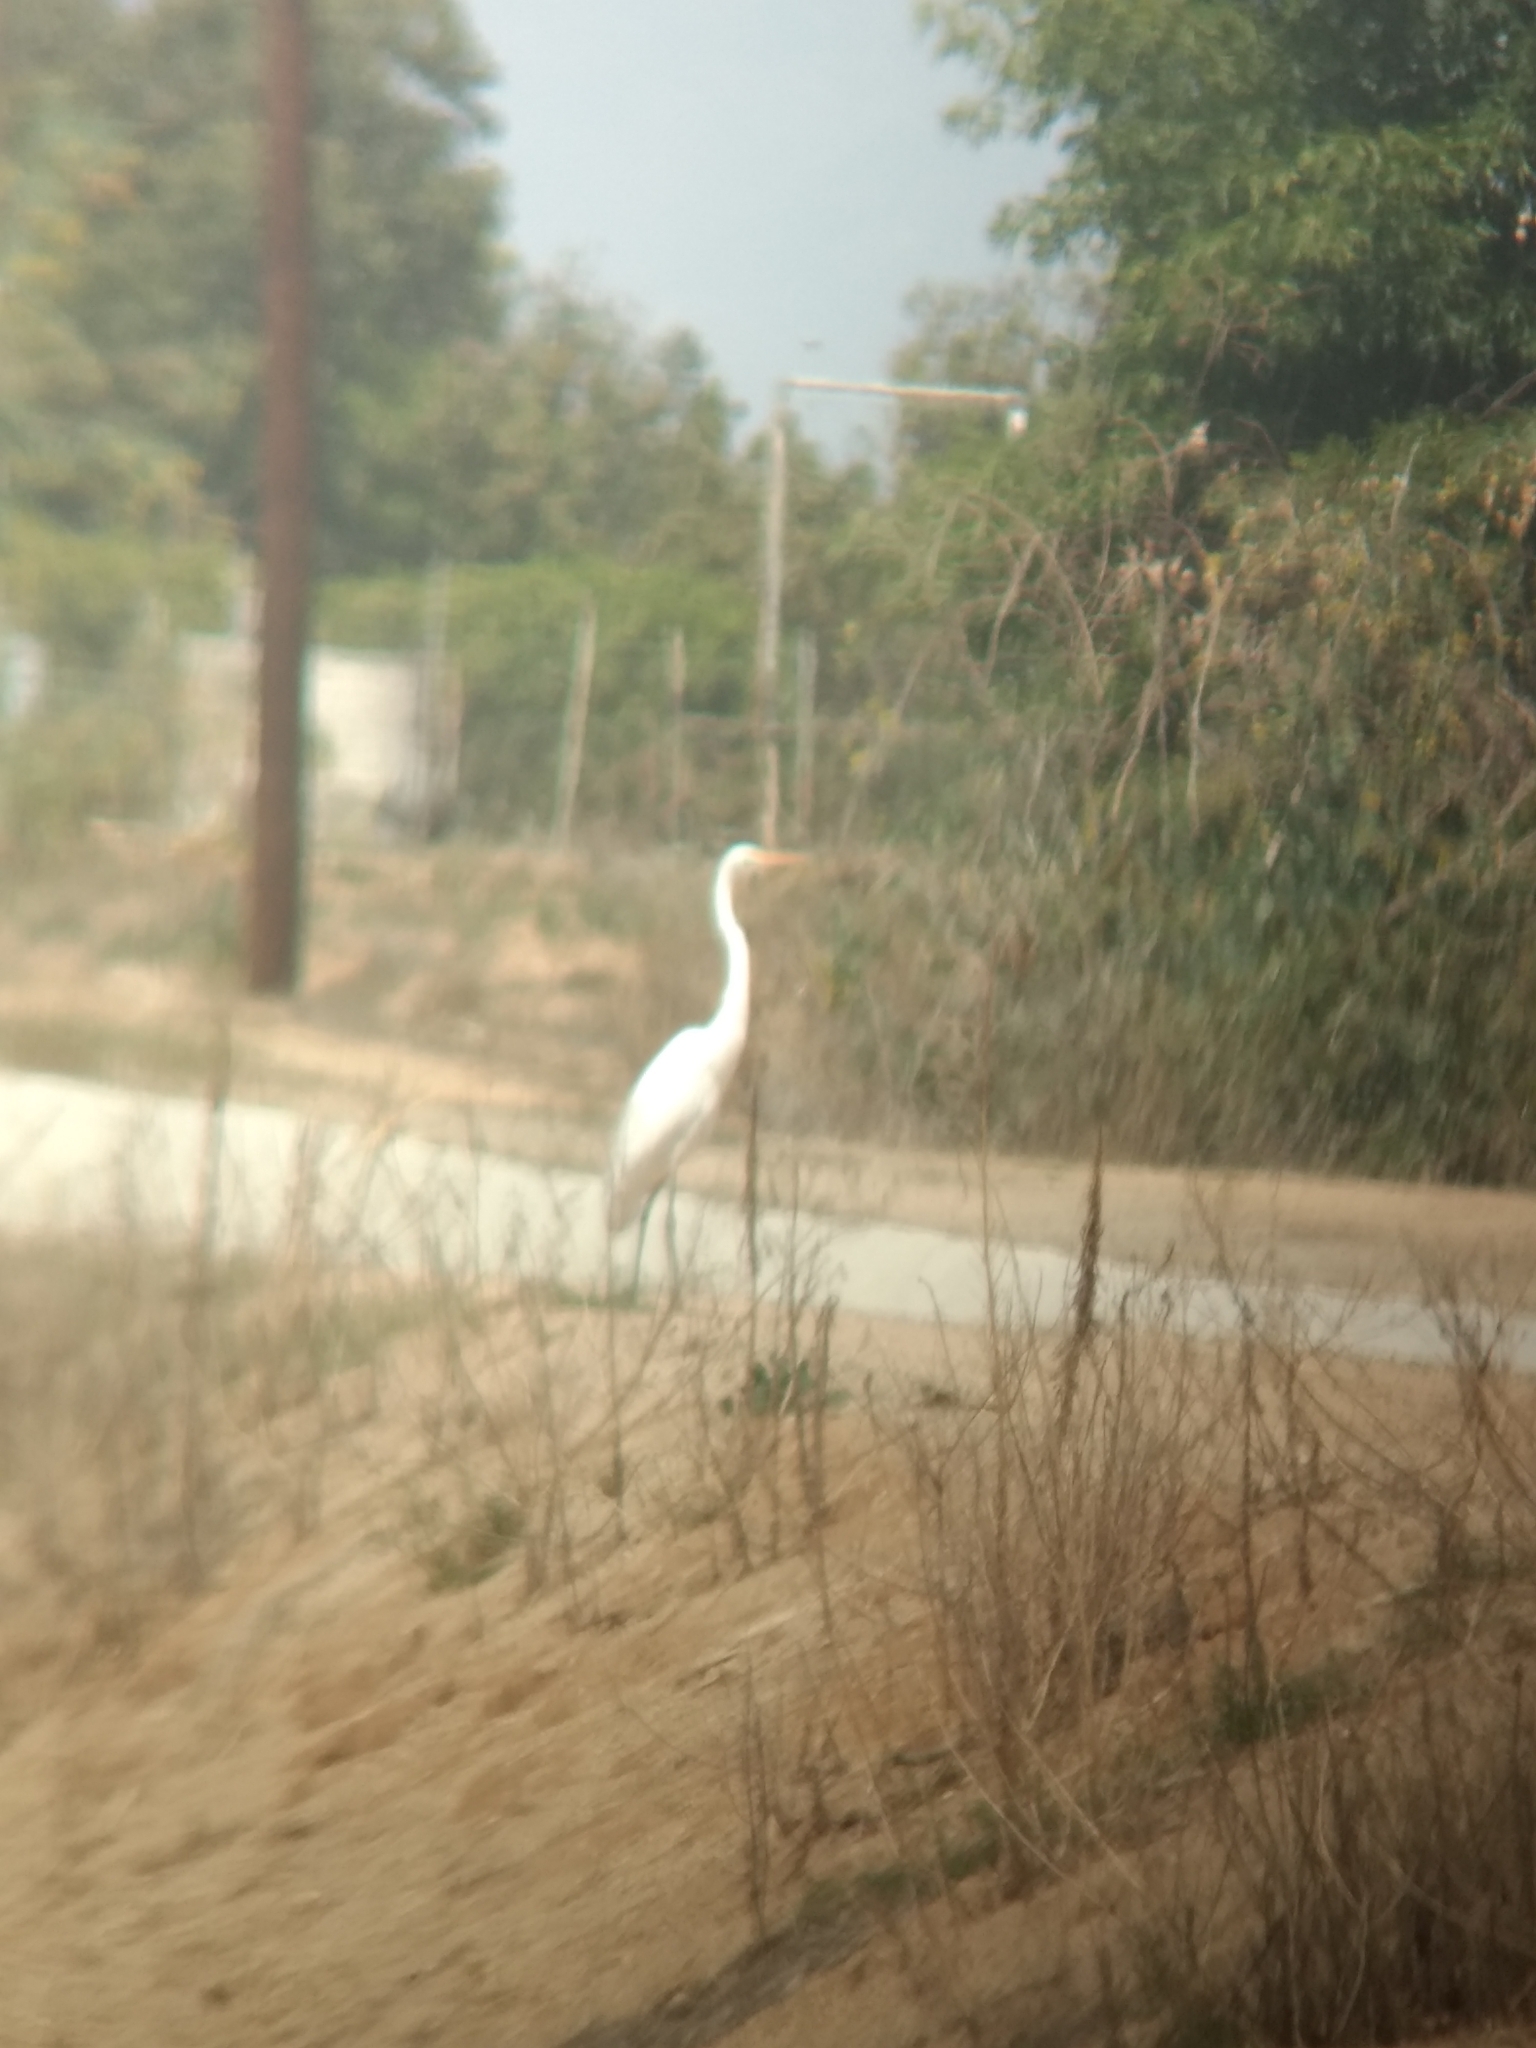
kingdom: Animalia
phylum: Chordata
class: Aves
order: Pelecaniformes
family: Ardeidae
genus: Ardea
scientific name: Ardea alba
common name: Great egret
